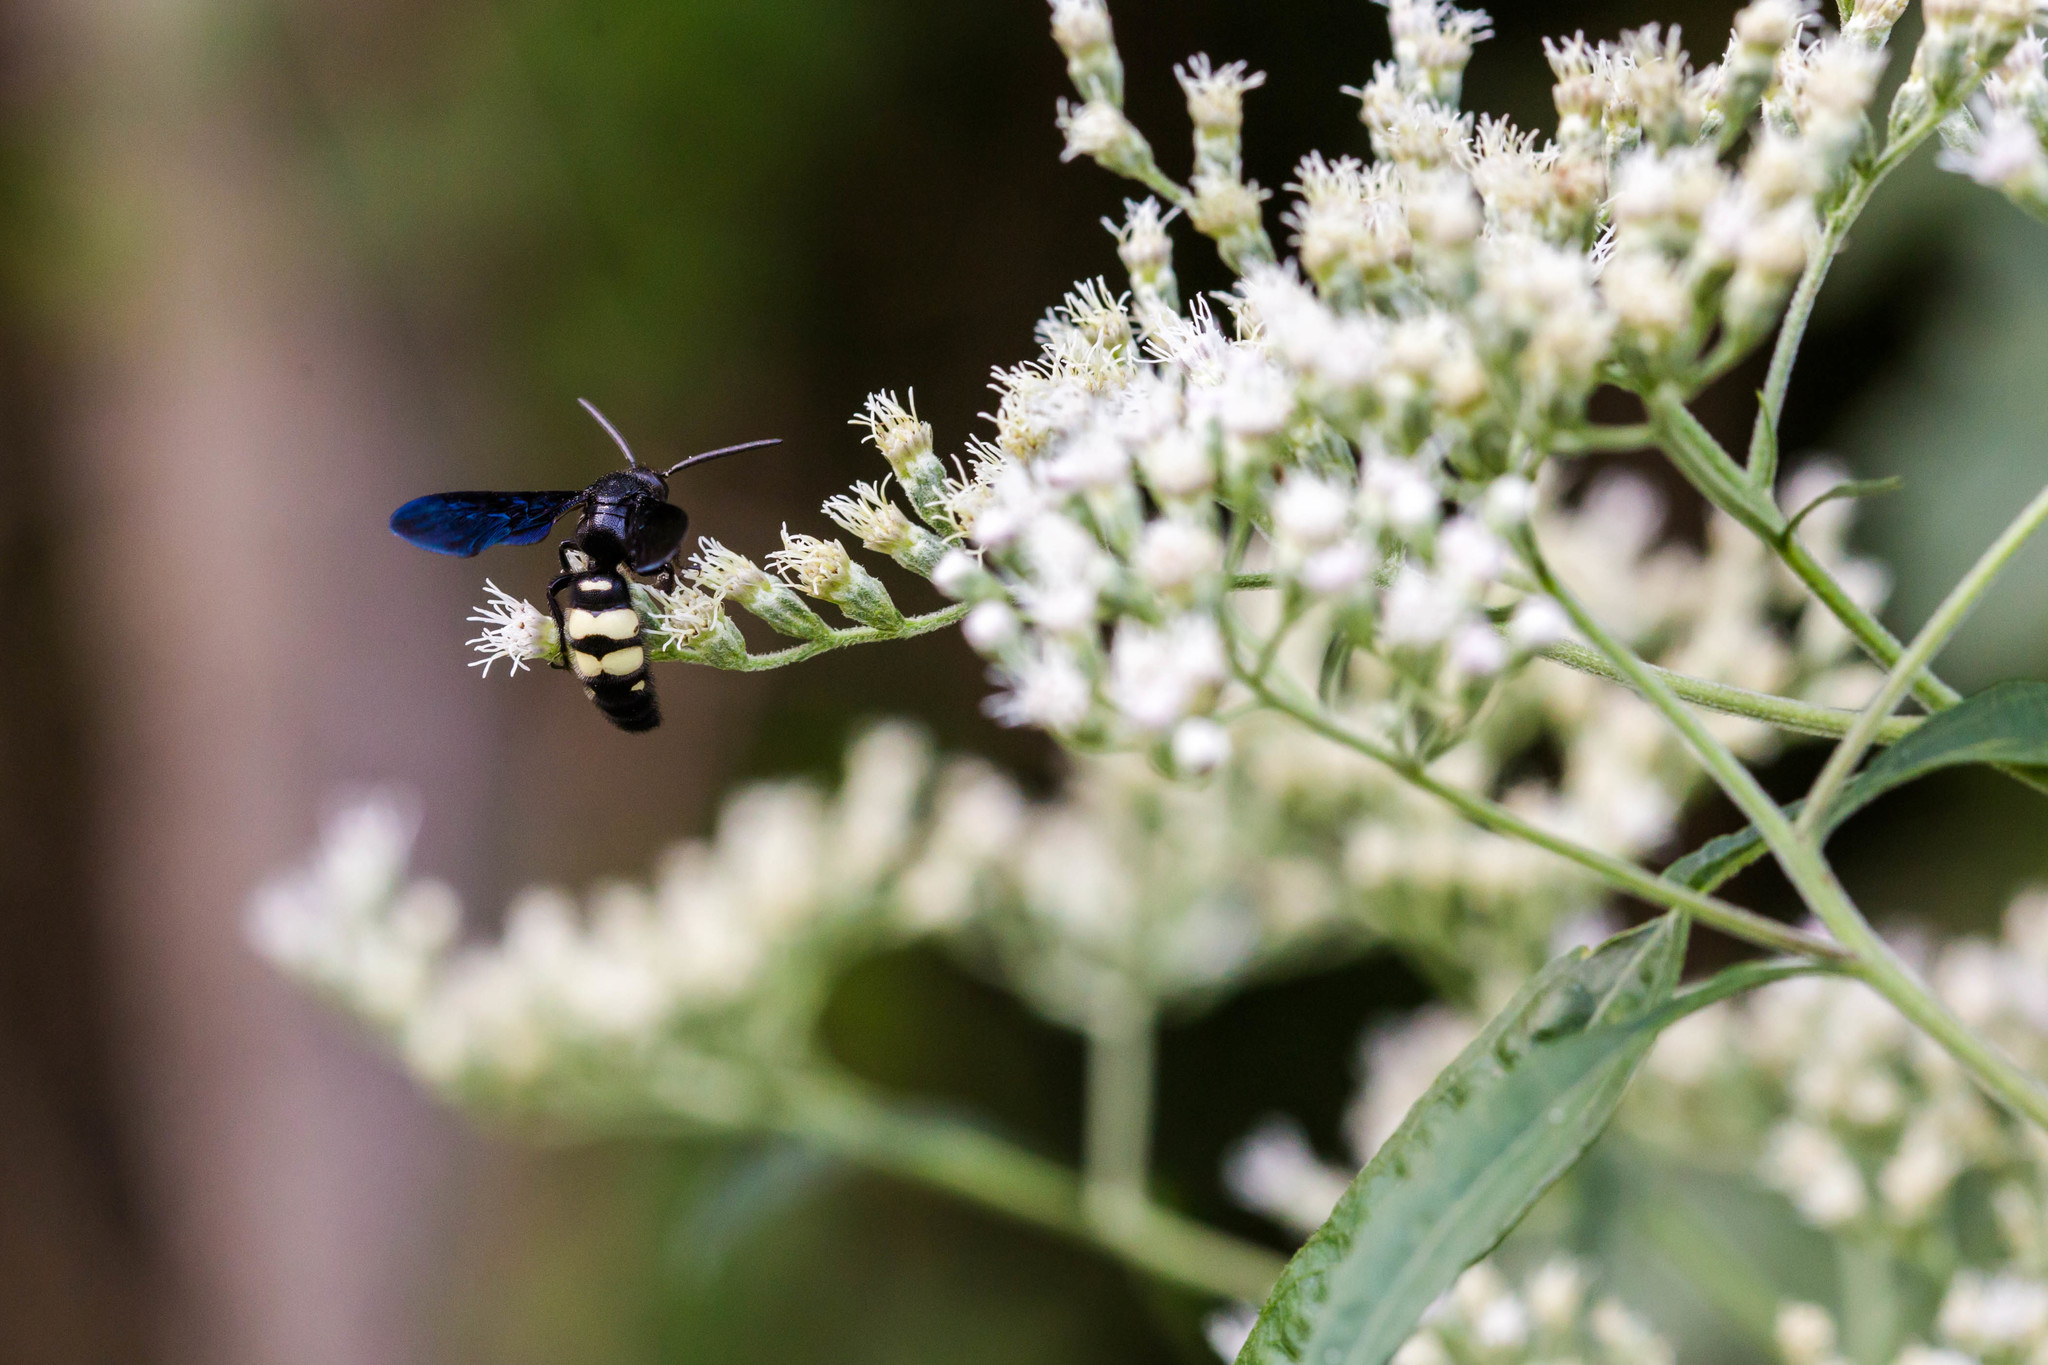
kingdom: Animalia
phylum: Arthropoda
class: Insecta
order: Hymenoptera
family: Scoliidae
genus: Scolia
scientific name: Scolia bicincta
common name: Double-banded scoliid wasp
